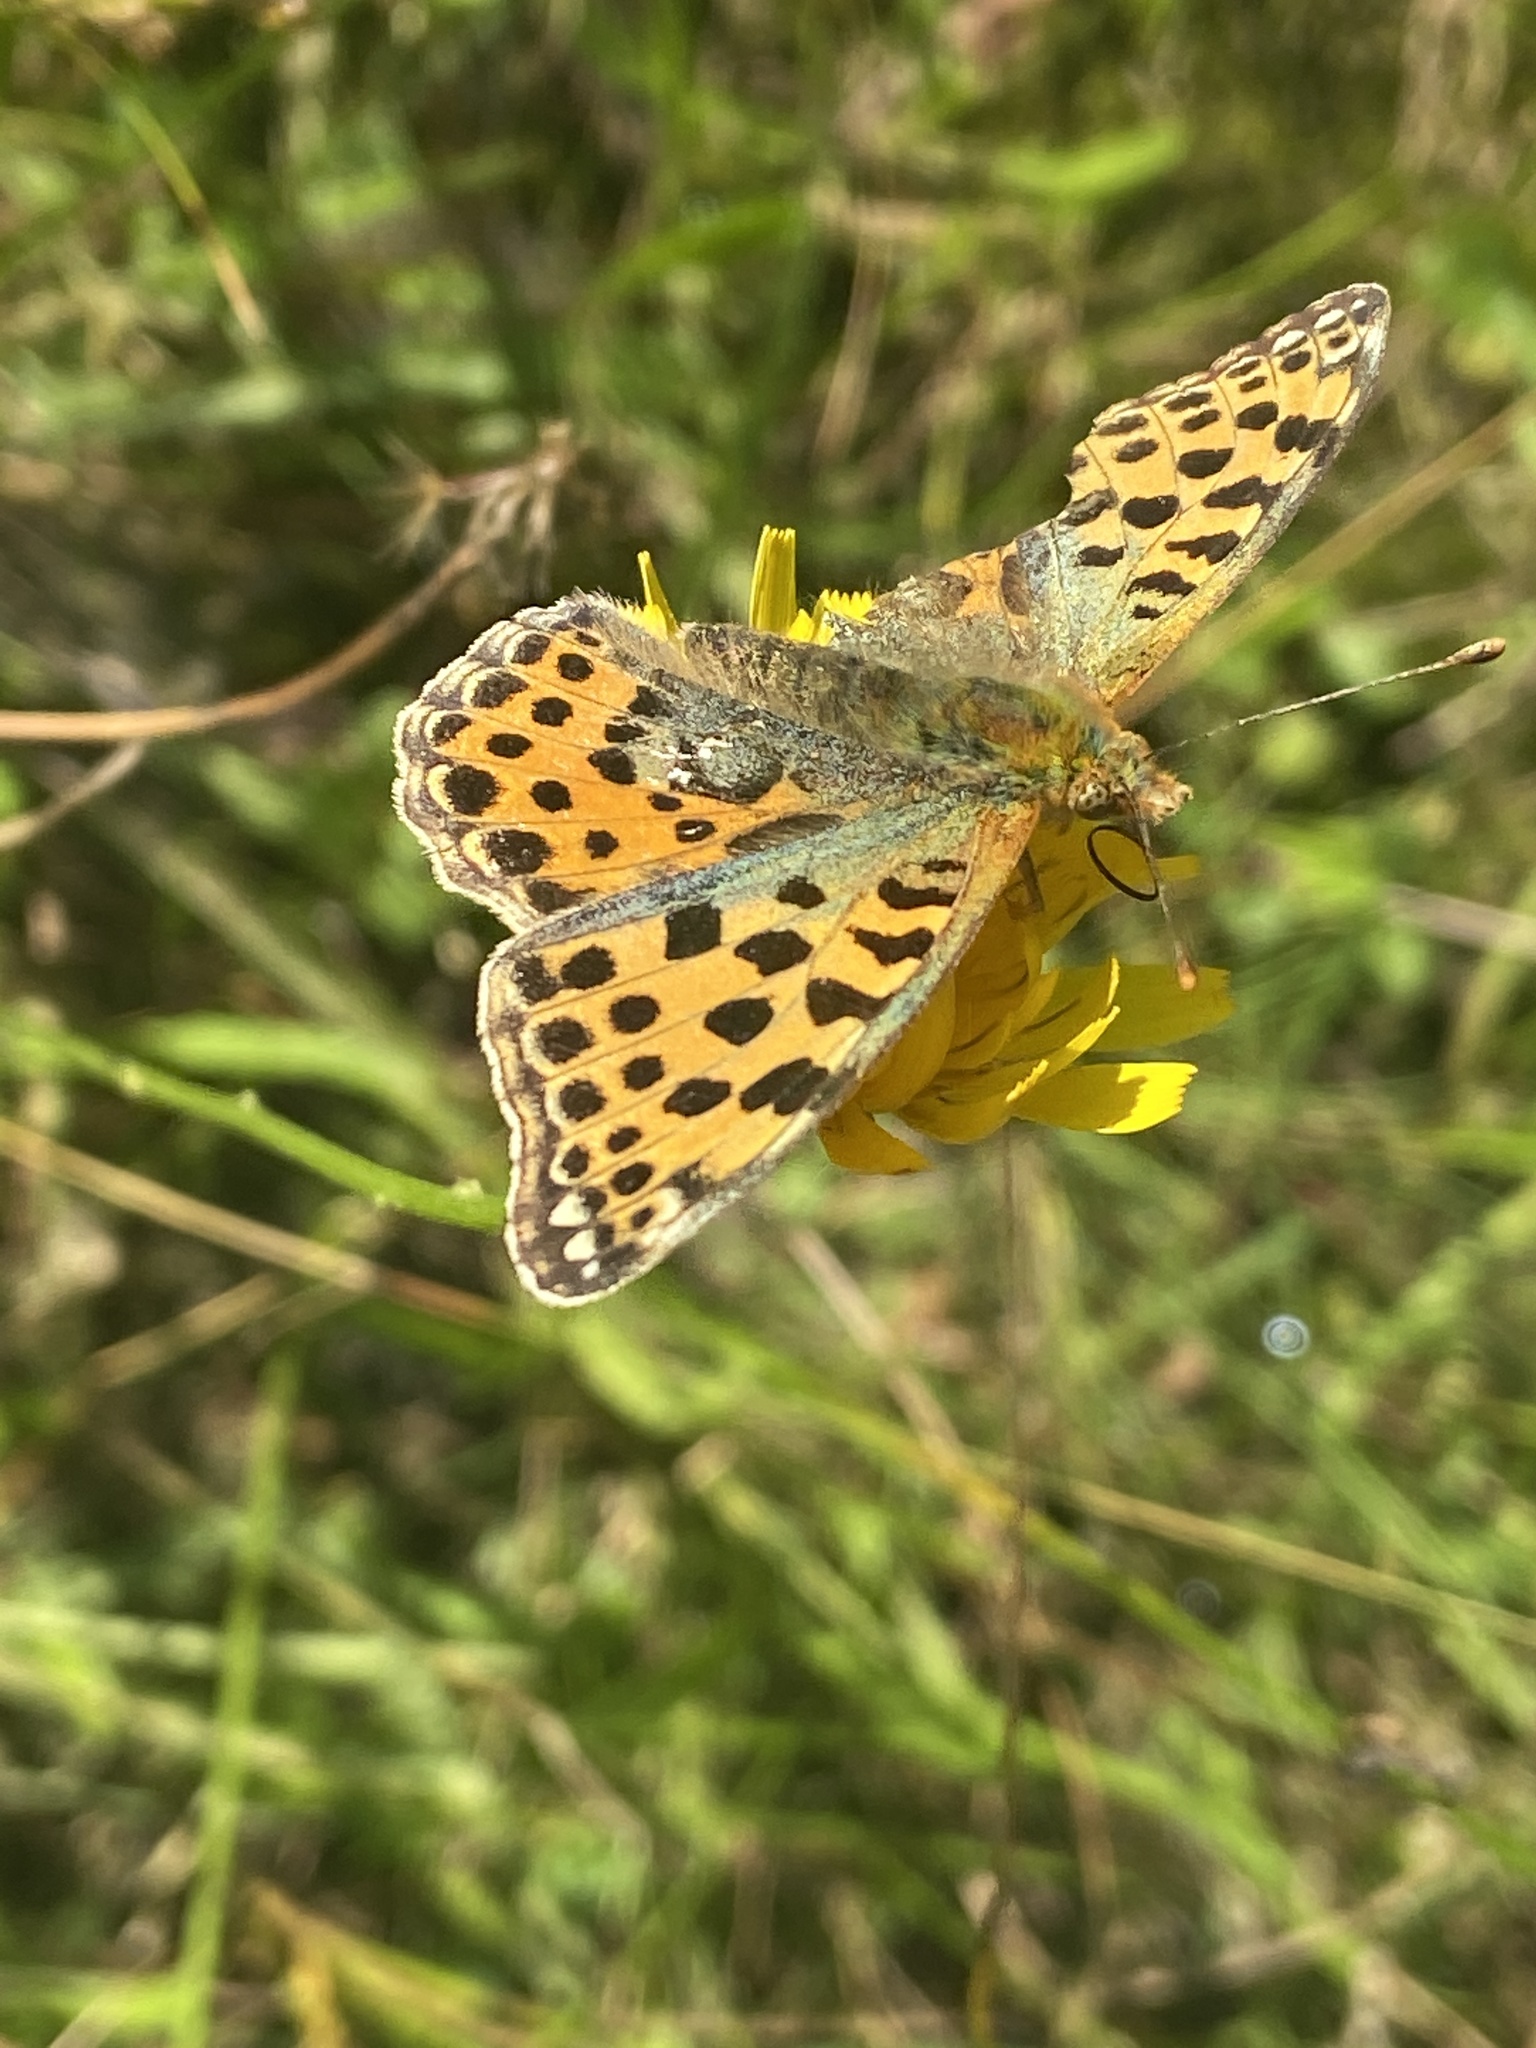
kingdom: Animalia
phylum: Arthropoda
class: Insecta
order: Lepidoptera
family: Nymphalidae
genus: Issoria
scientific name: Issoria lathonia
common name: Queen of spain fritillary
